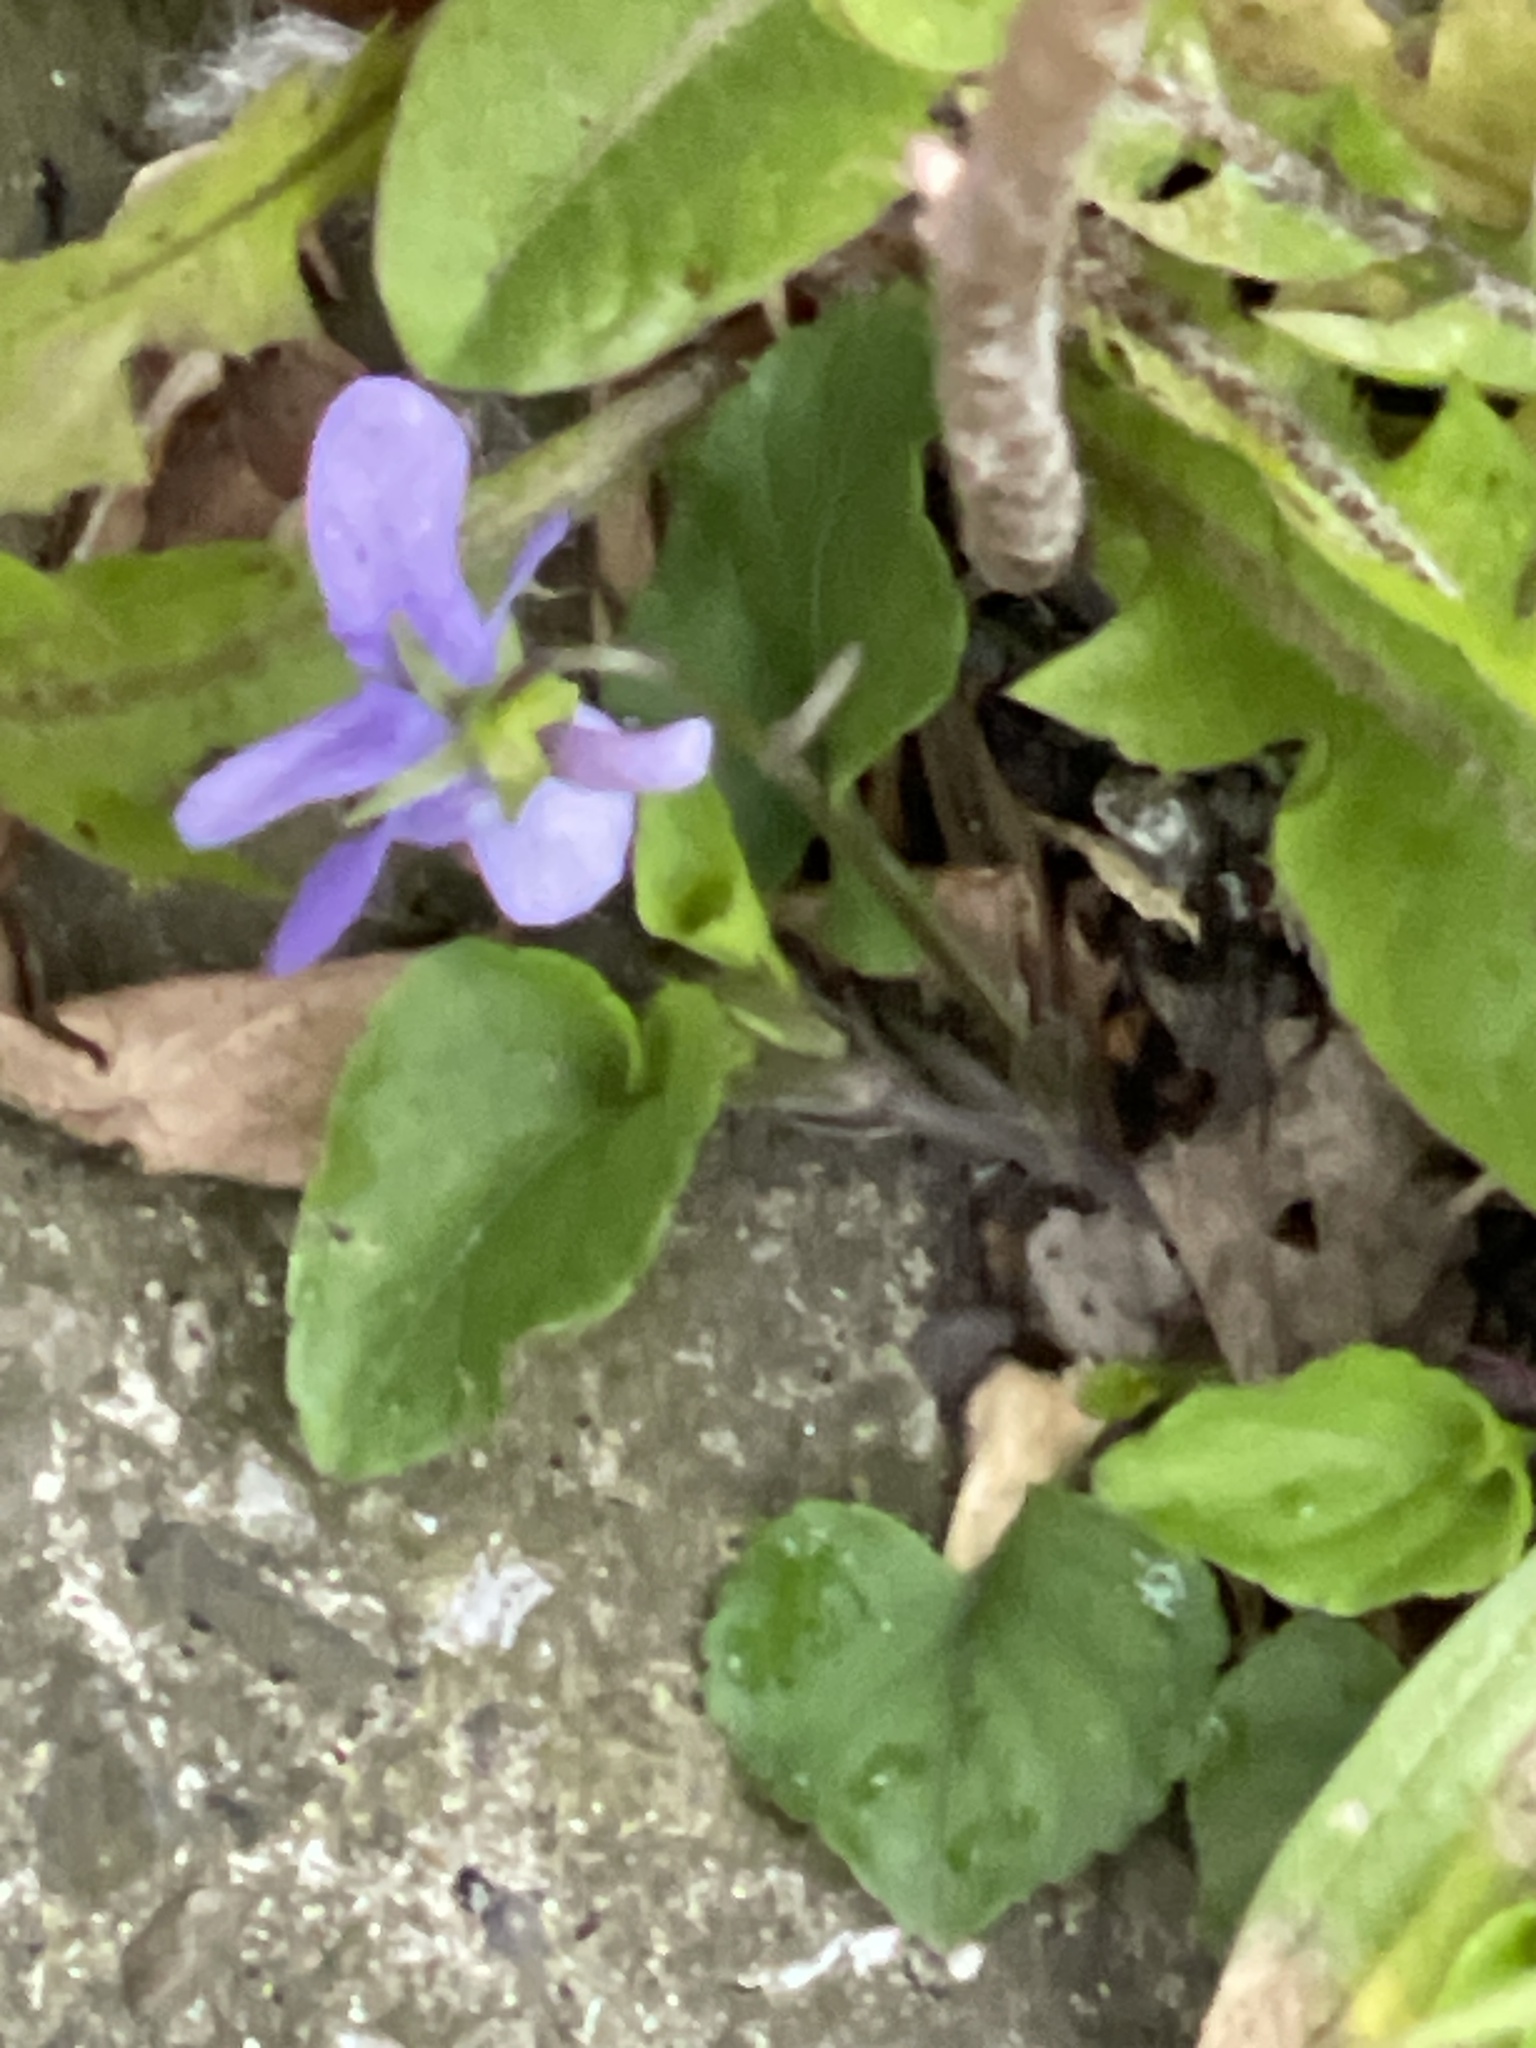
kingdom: Plantae
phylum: Tracheophyta
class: Magnoliopsida
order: Malpighiales
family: Violaceae
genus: Viola
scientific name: Viola riviniana
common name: Common dog-violet
